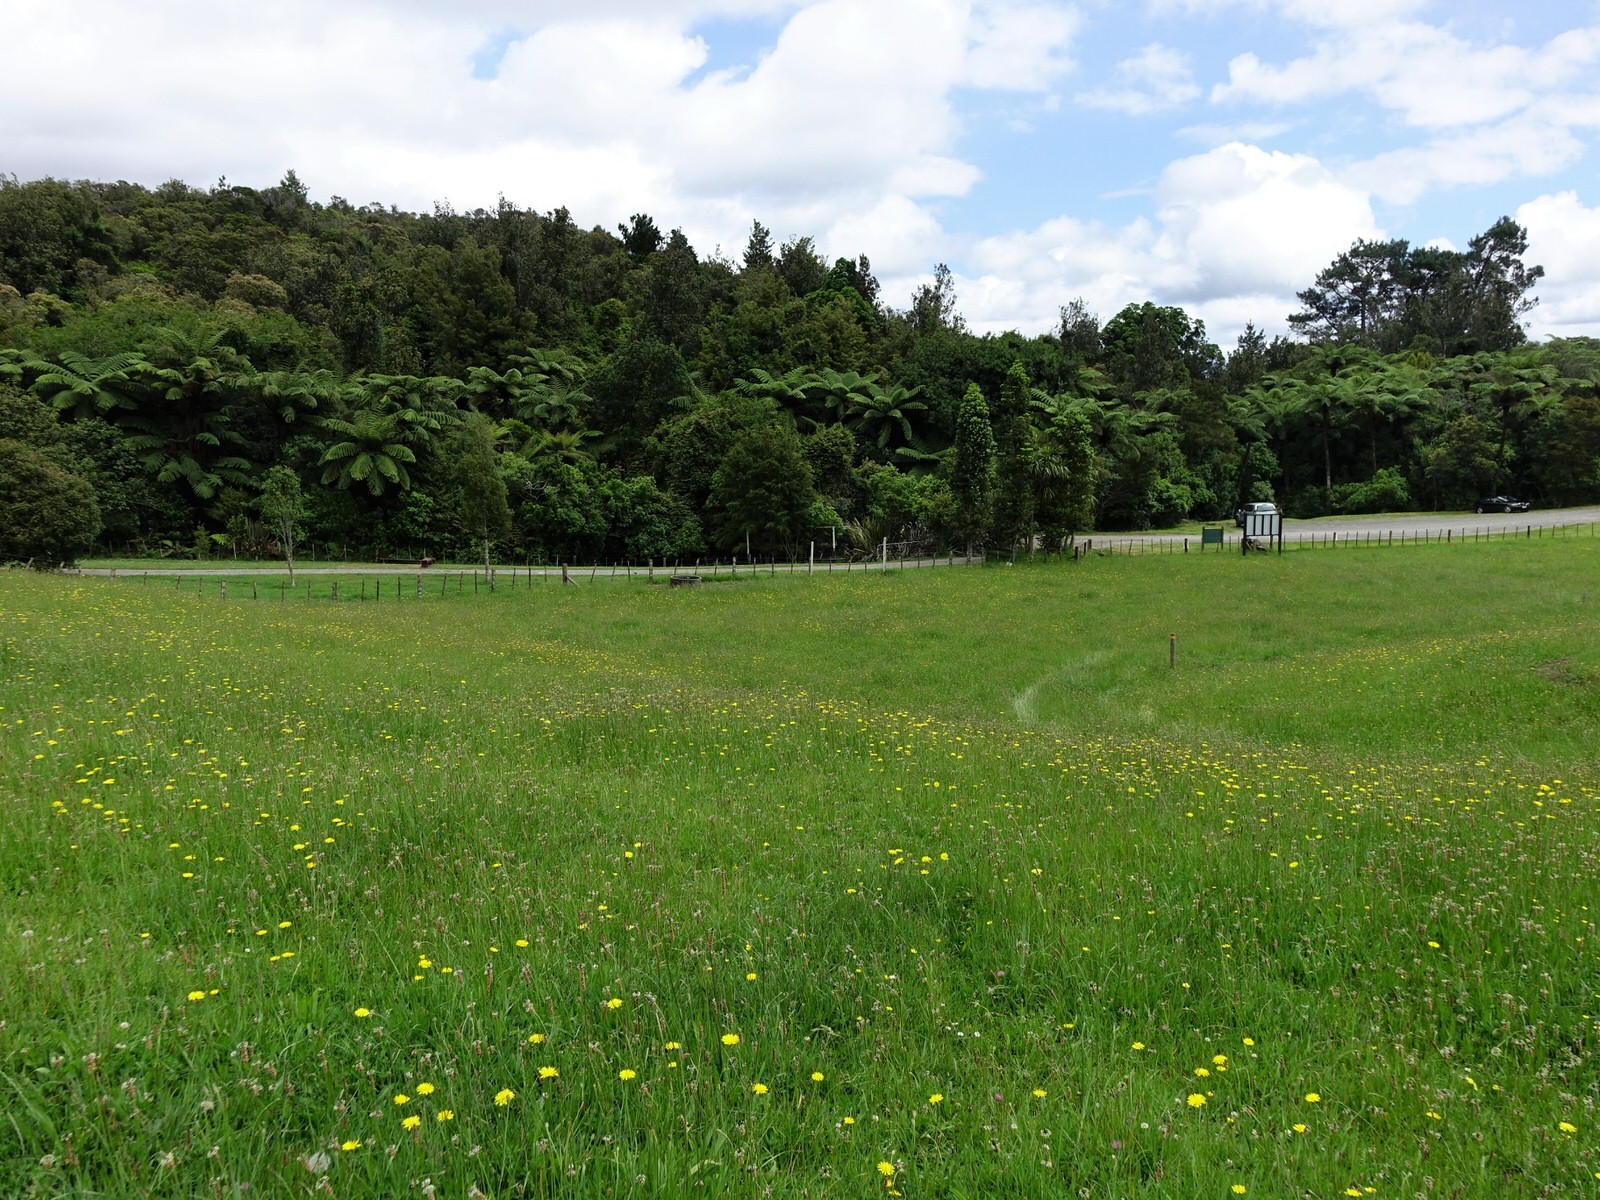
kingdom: Animalia
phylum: Arthropoda
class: Insecta
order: Lepidoptera
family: Geometridae
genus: Scopula
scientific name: Scopula rubraria
